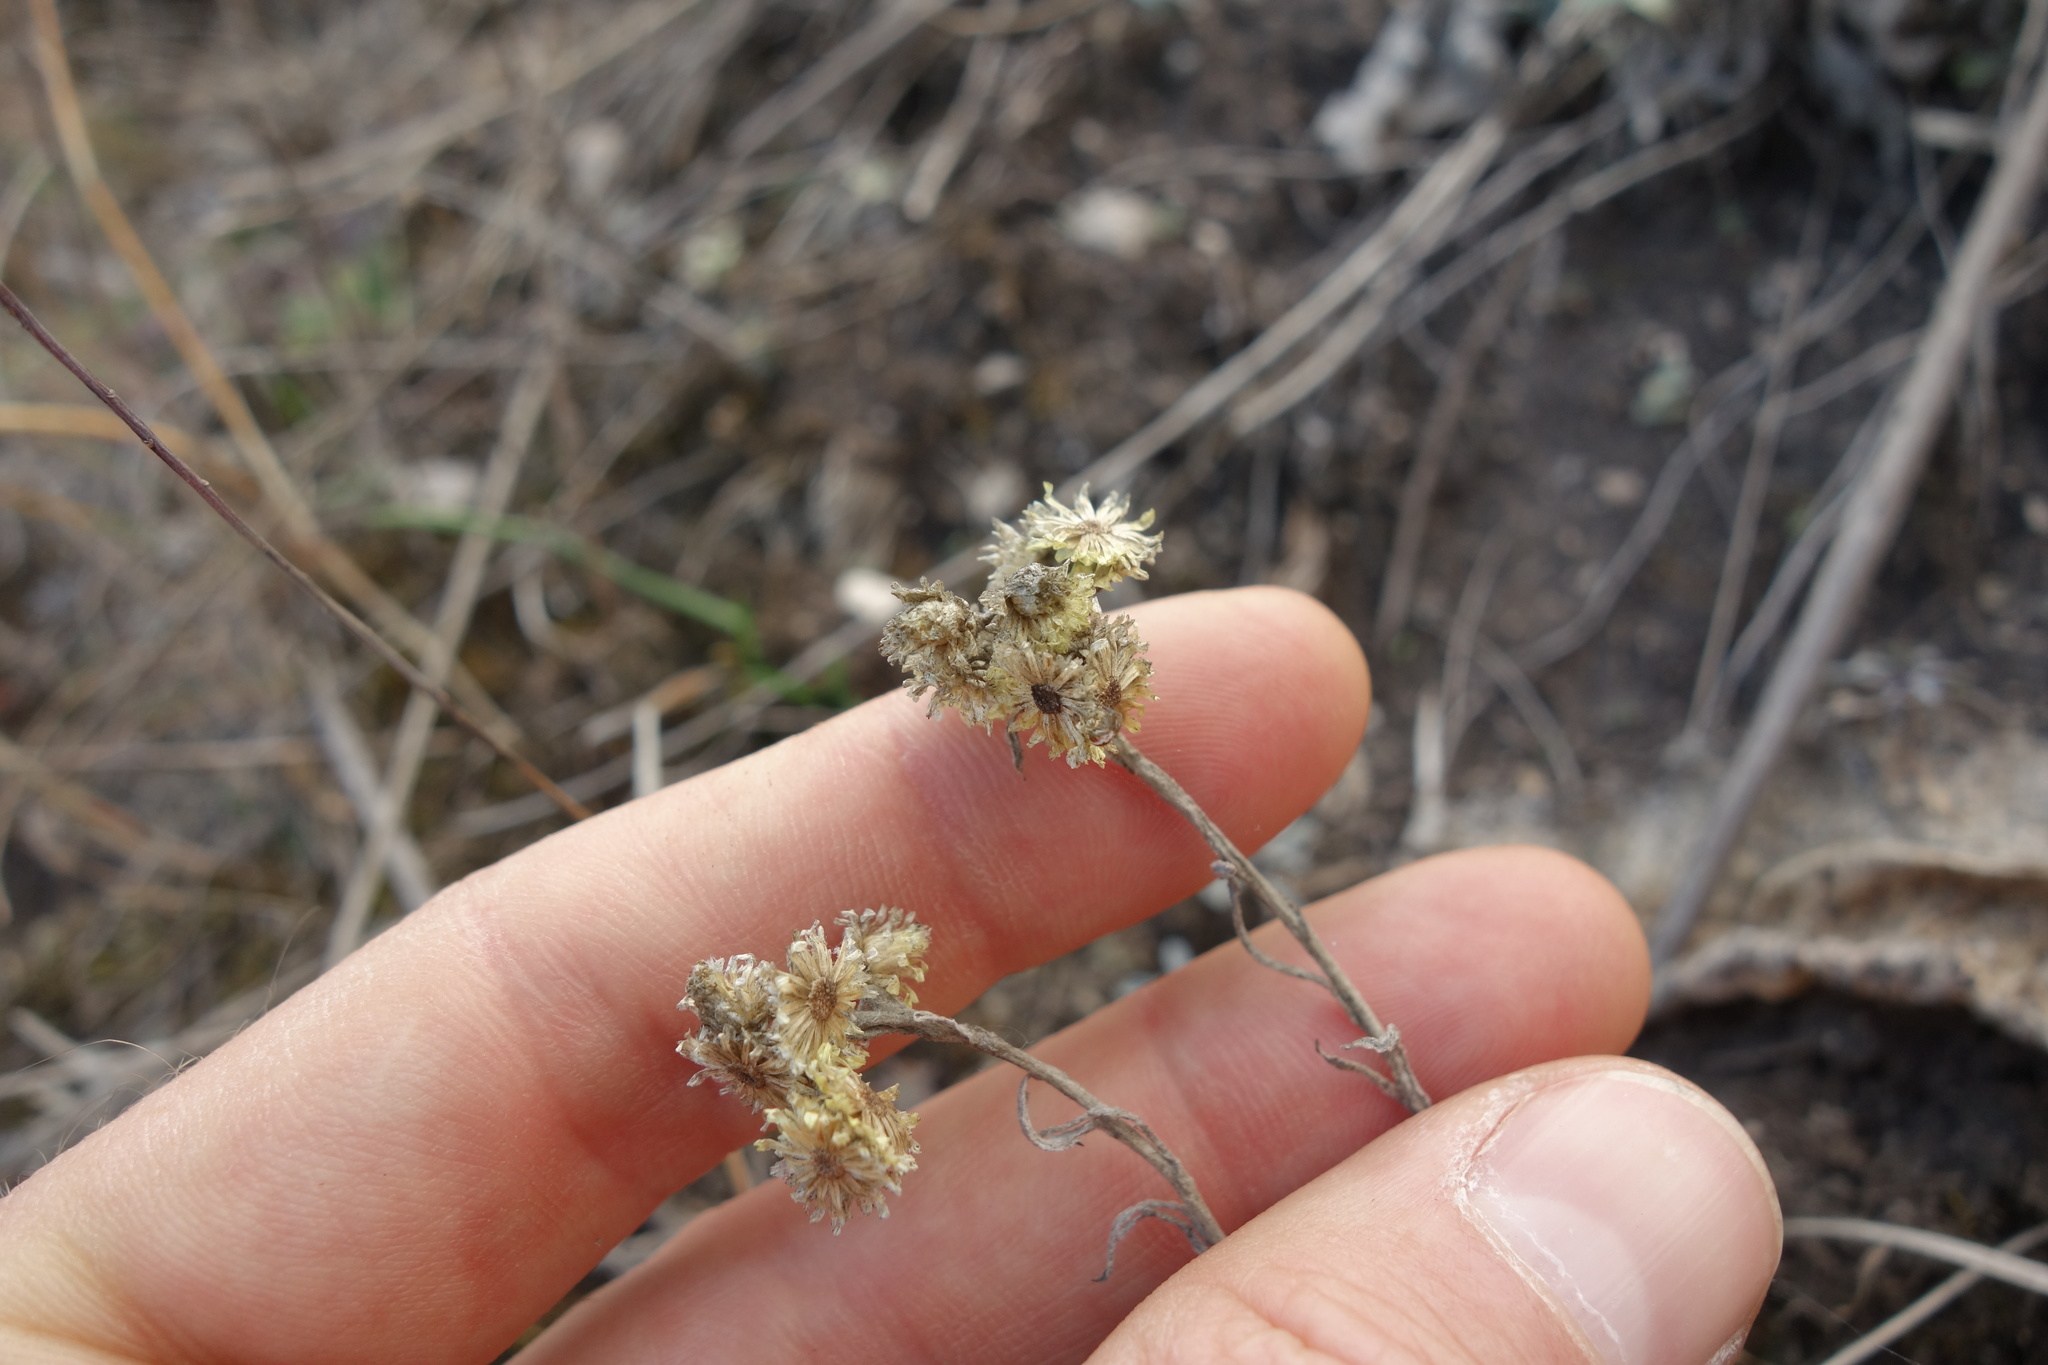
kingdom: Plantae
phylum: Tracheophyta
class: Magnoliopsida
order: Asterales
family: Asteraceae
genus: Helichrysum
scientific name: Helichrysum arenarium
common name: Strawflower
